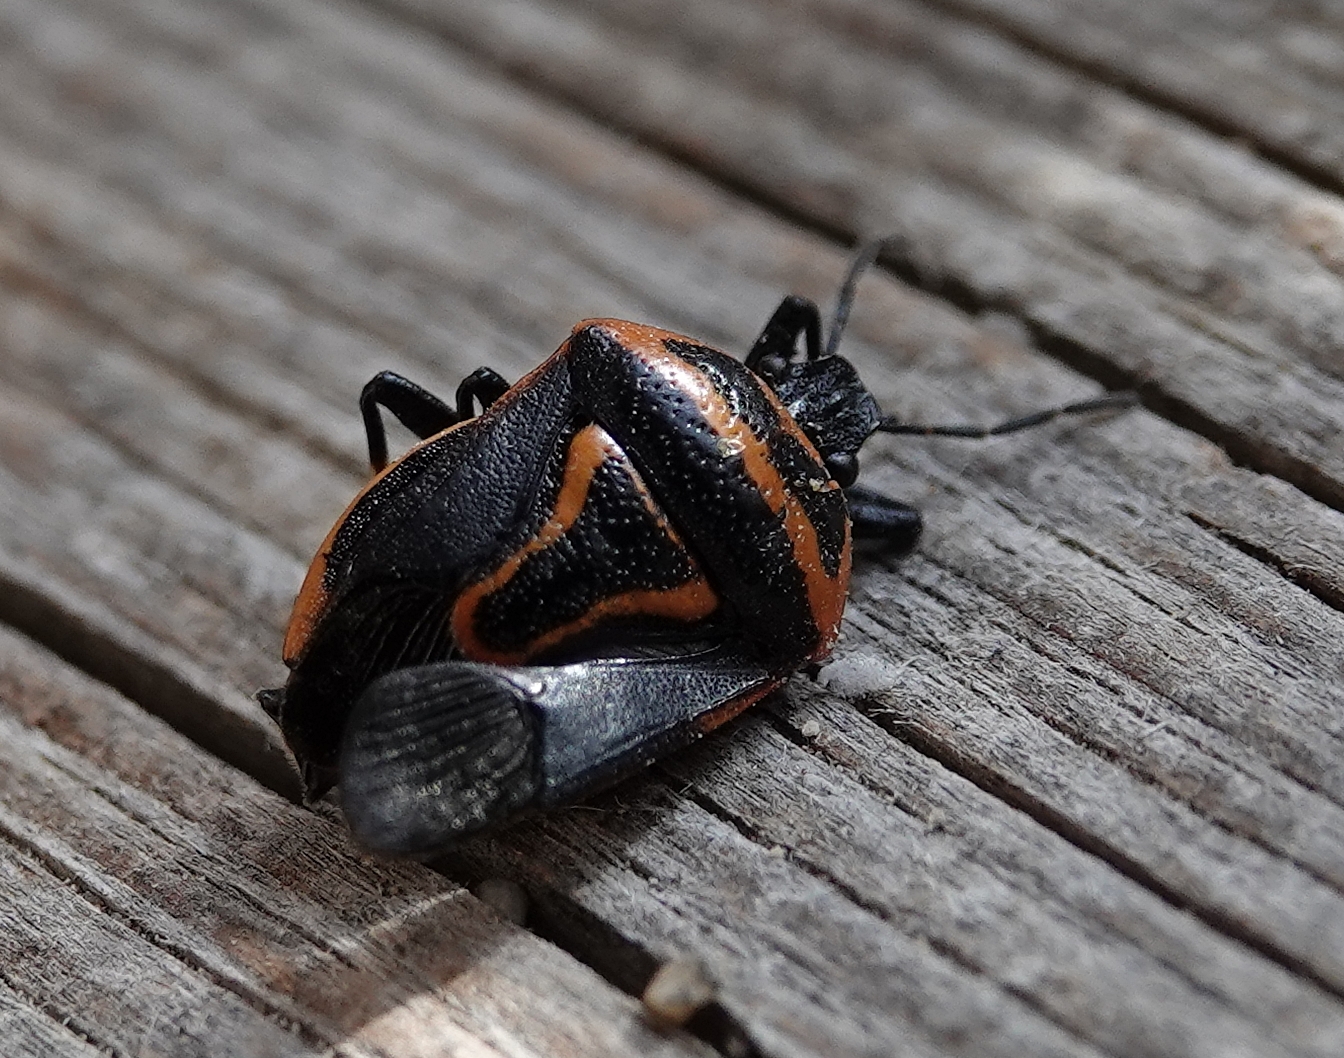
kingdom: Animalia
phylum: Arthropoda
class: Insecta
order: Hemiptera
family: Pentatomidae
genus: Perillus
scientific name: Perillus bioculatus
